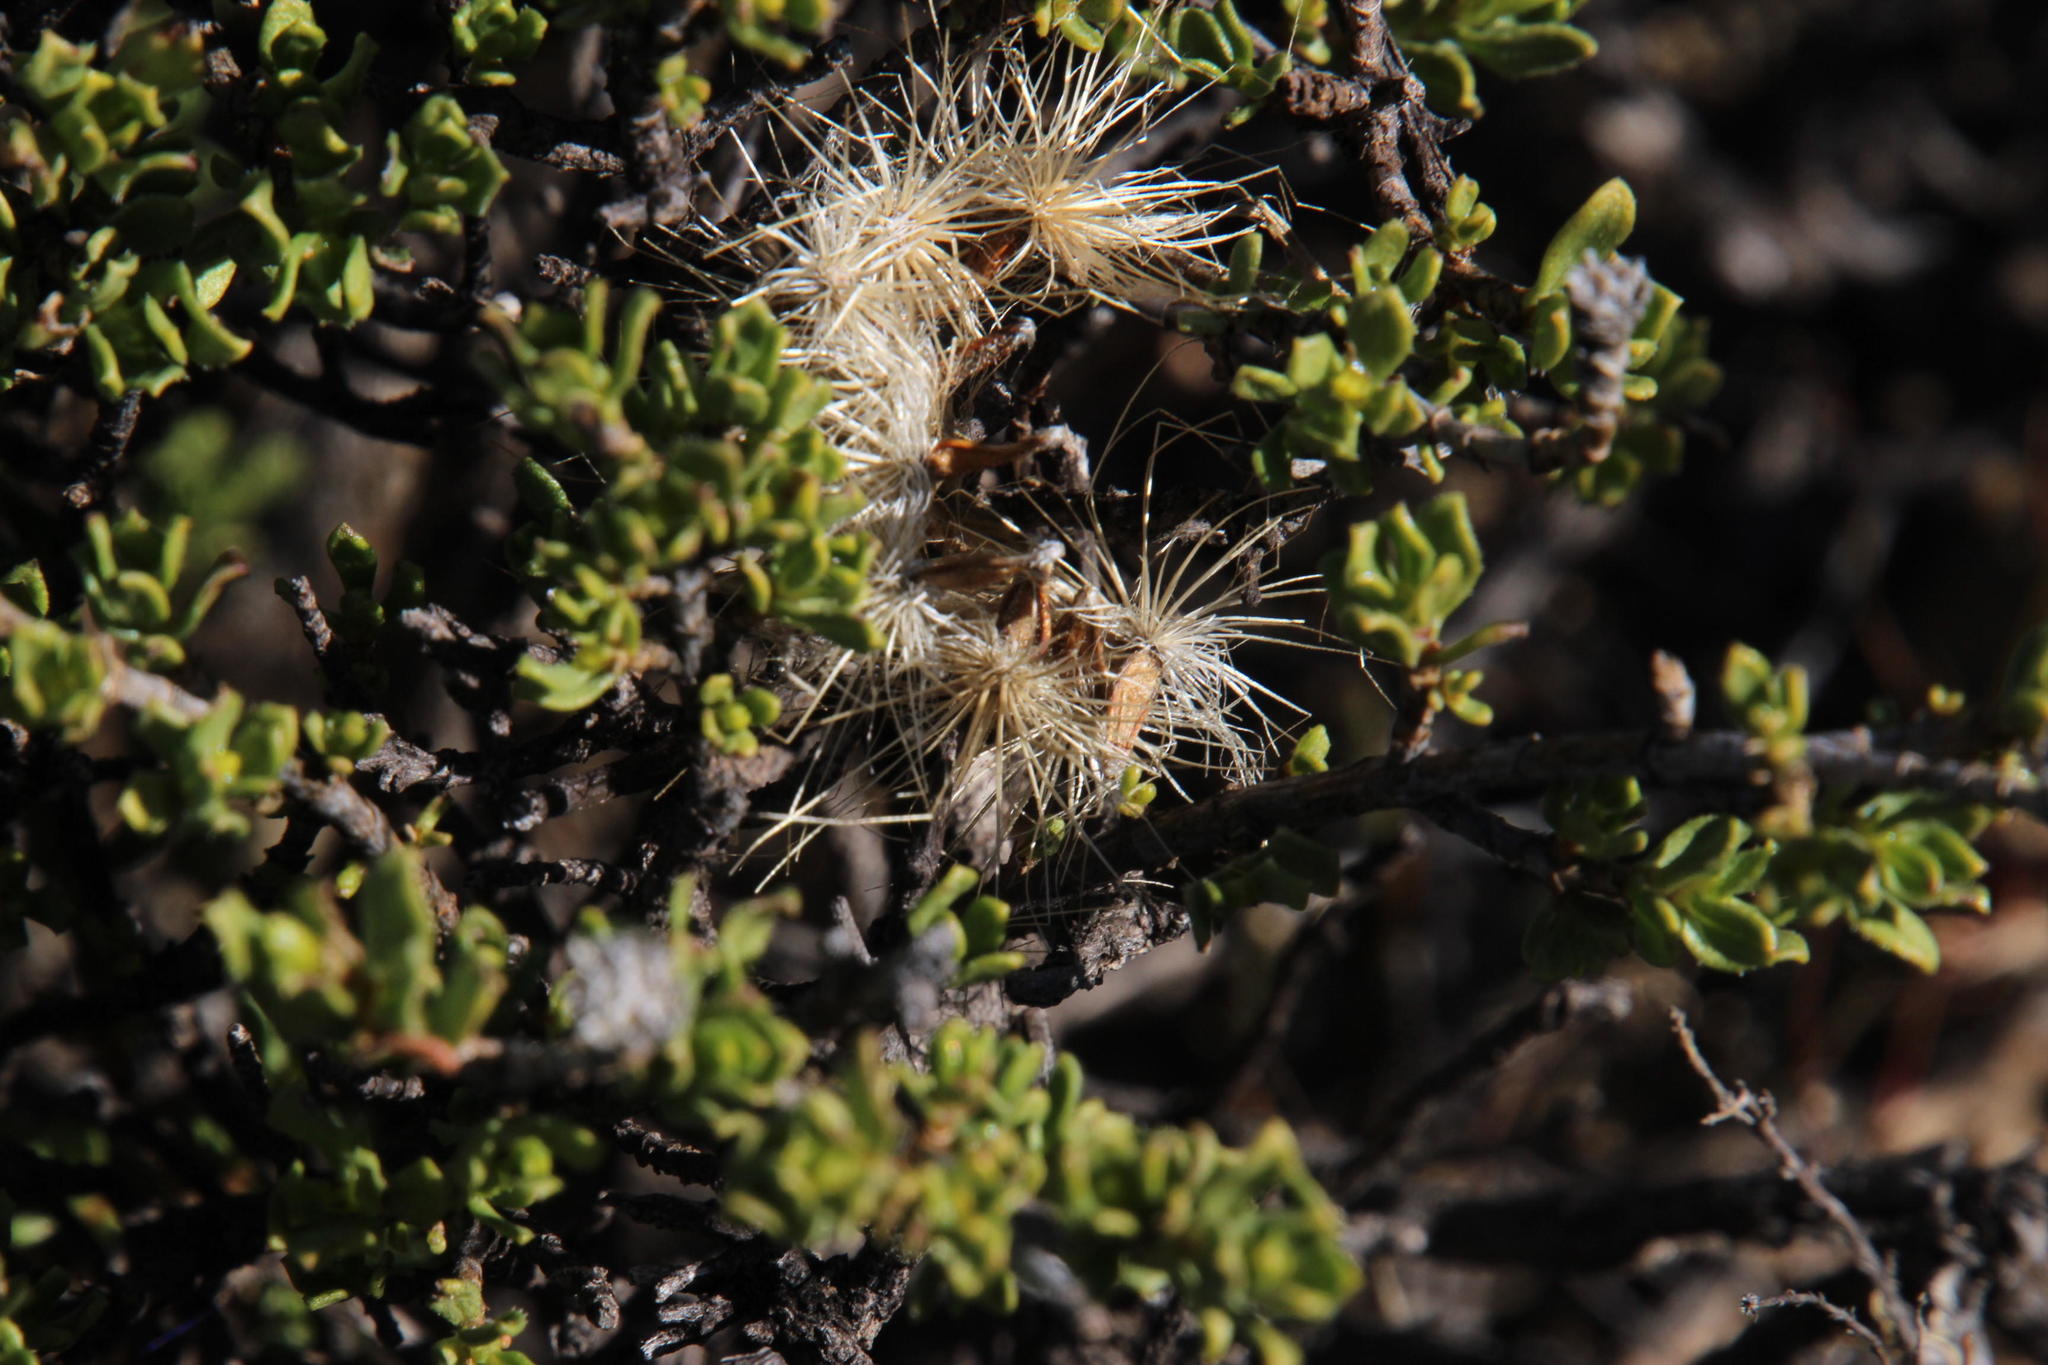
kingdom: Plantae
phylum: Tracheophyta
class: Magnoliopsida
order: Asterales
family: Asteraceae
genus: Pegolettia
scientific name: Pegolettia retrofracta
